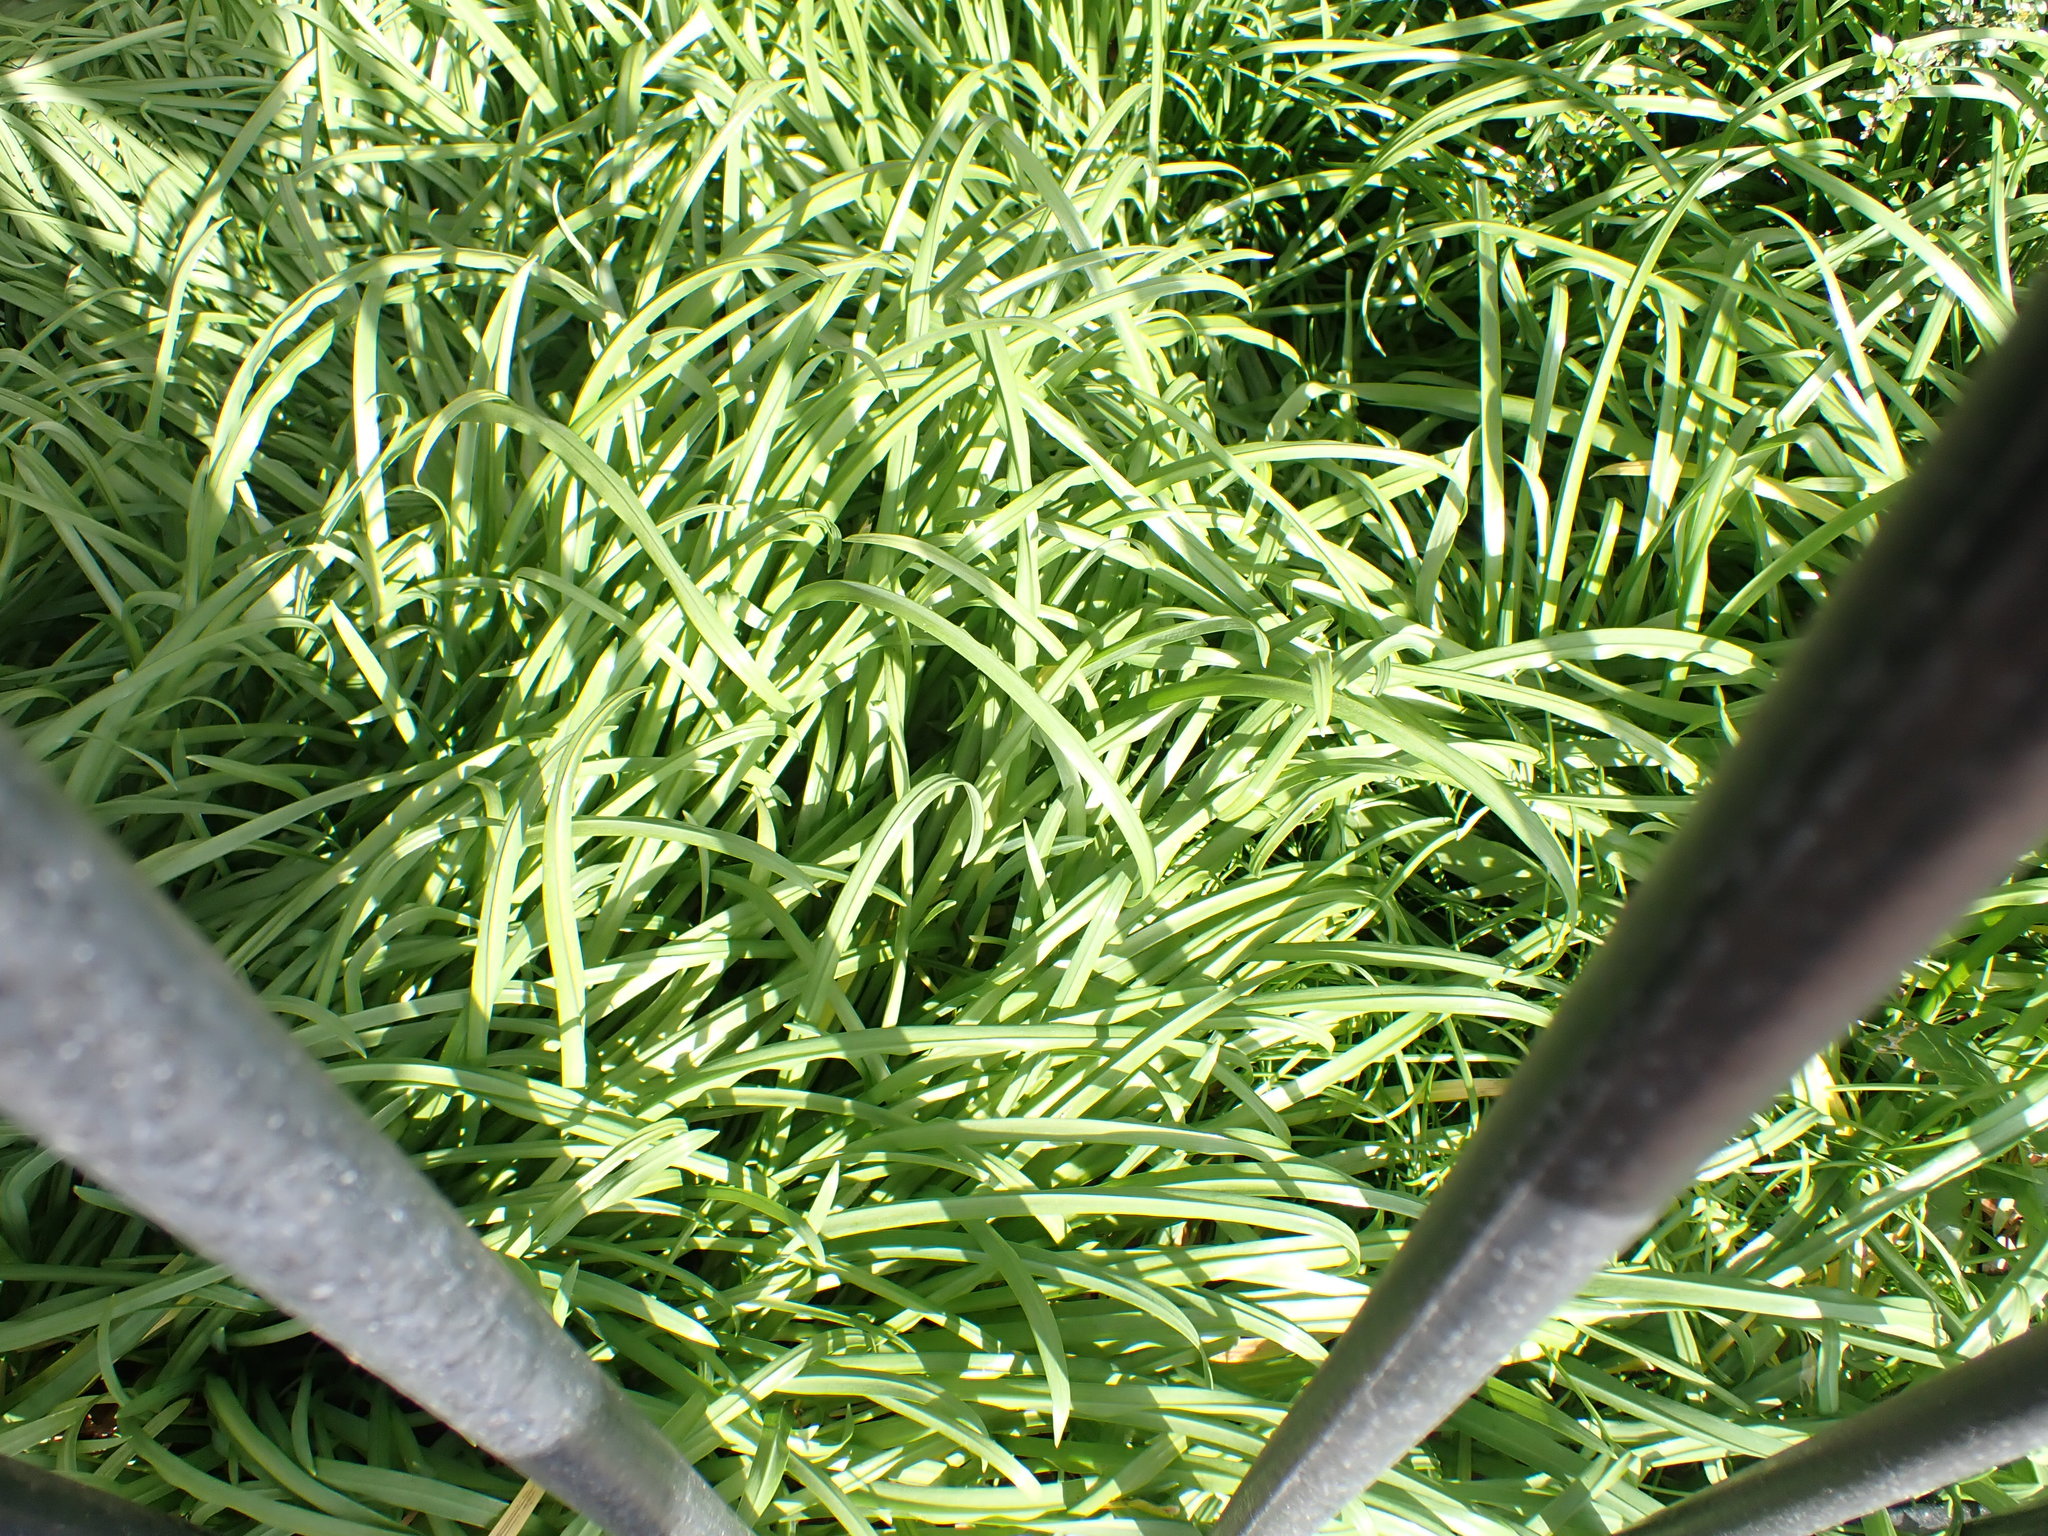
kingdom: Plantae
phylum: Tracheophyta
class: Liliopsida
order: Asparagales
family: Amaryllidaceae
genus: Allium
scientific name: Allium triquetrum
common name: Three-cornered garlic
